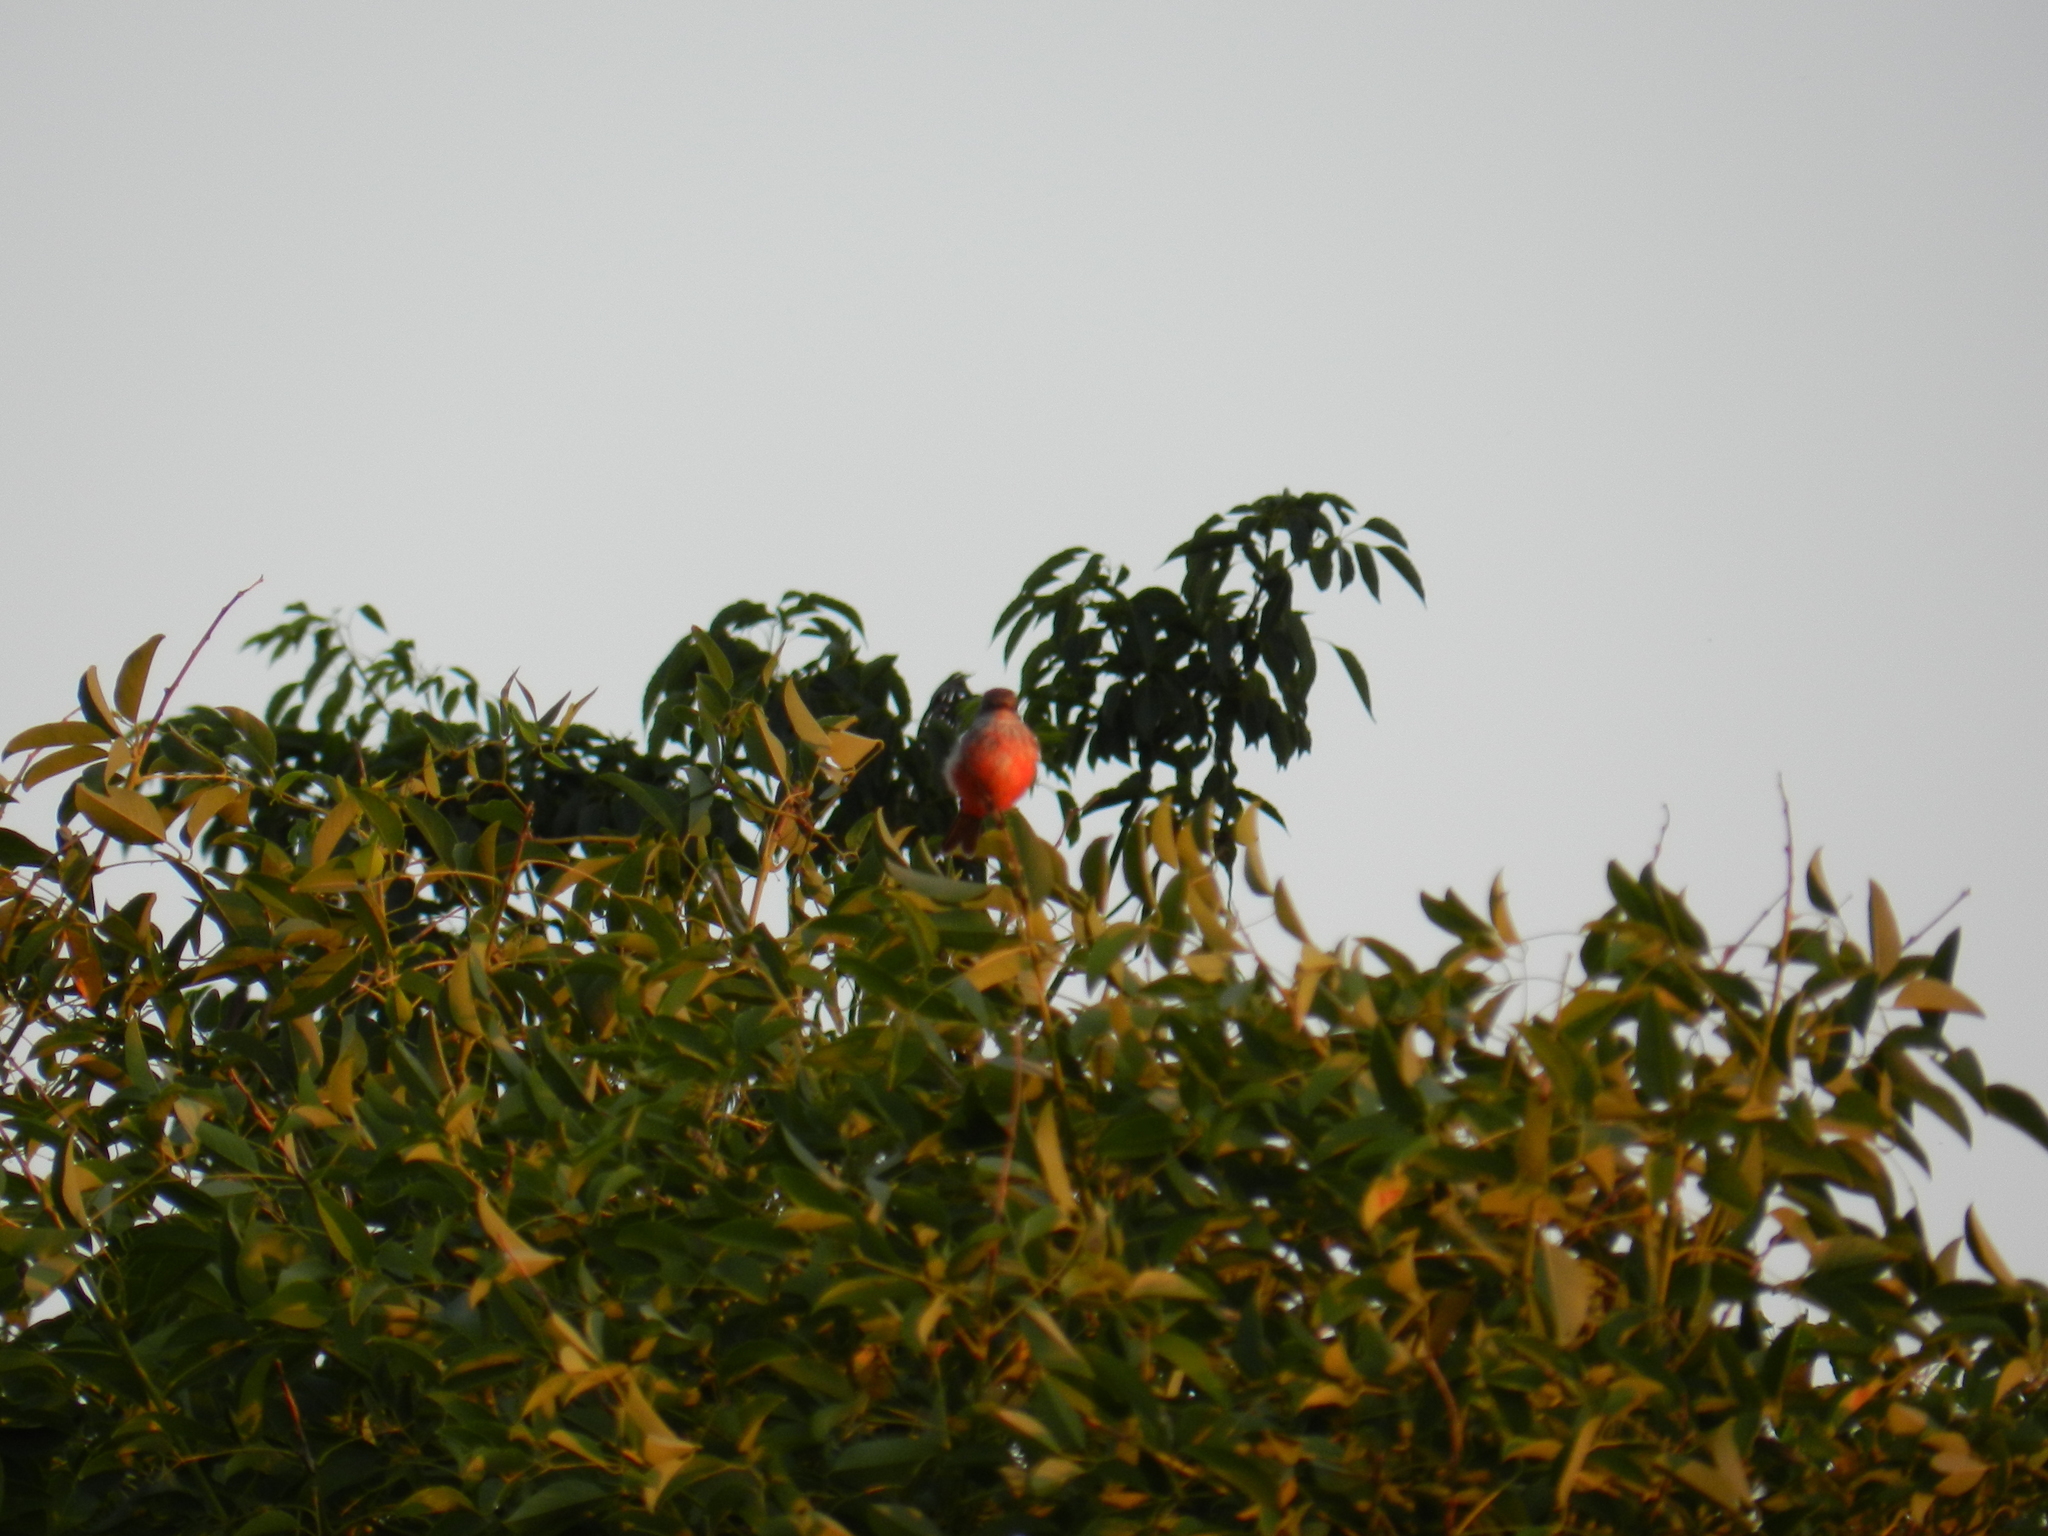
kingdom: Animalia
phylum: Chordata
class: Aves
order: Passeriformes
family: Tyrannidae
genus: Pyrocephalus
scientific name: Pyrocephalus rubinus
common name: Vermilion flycatcher
